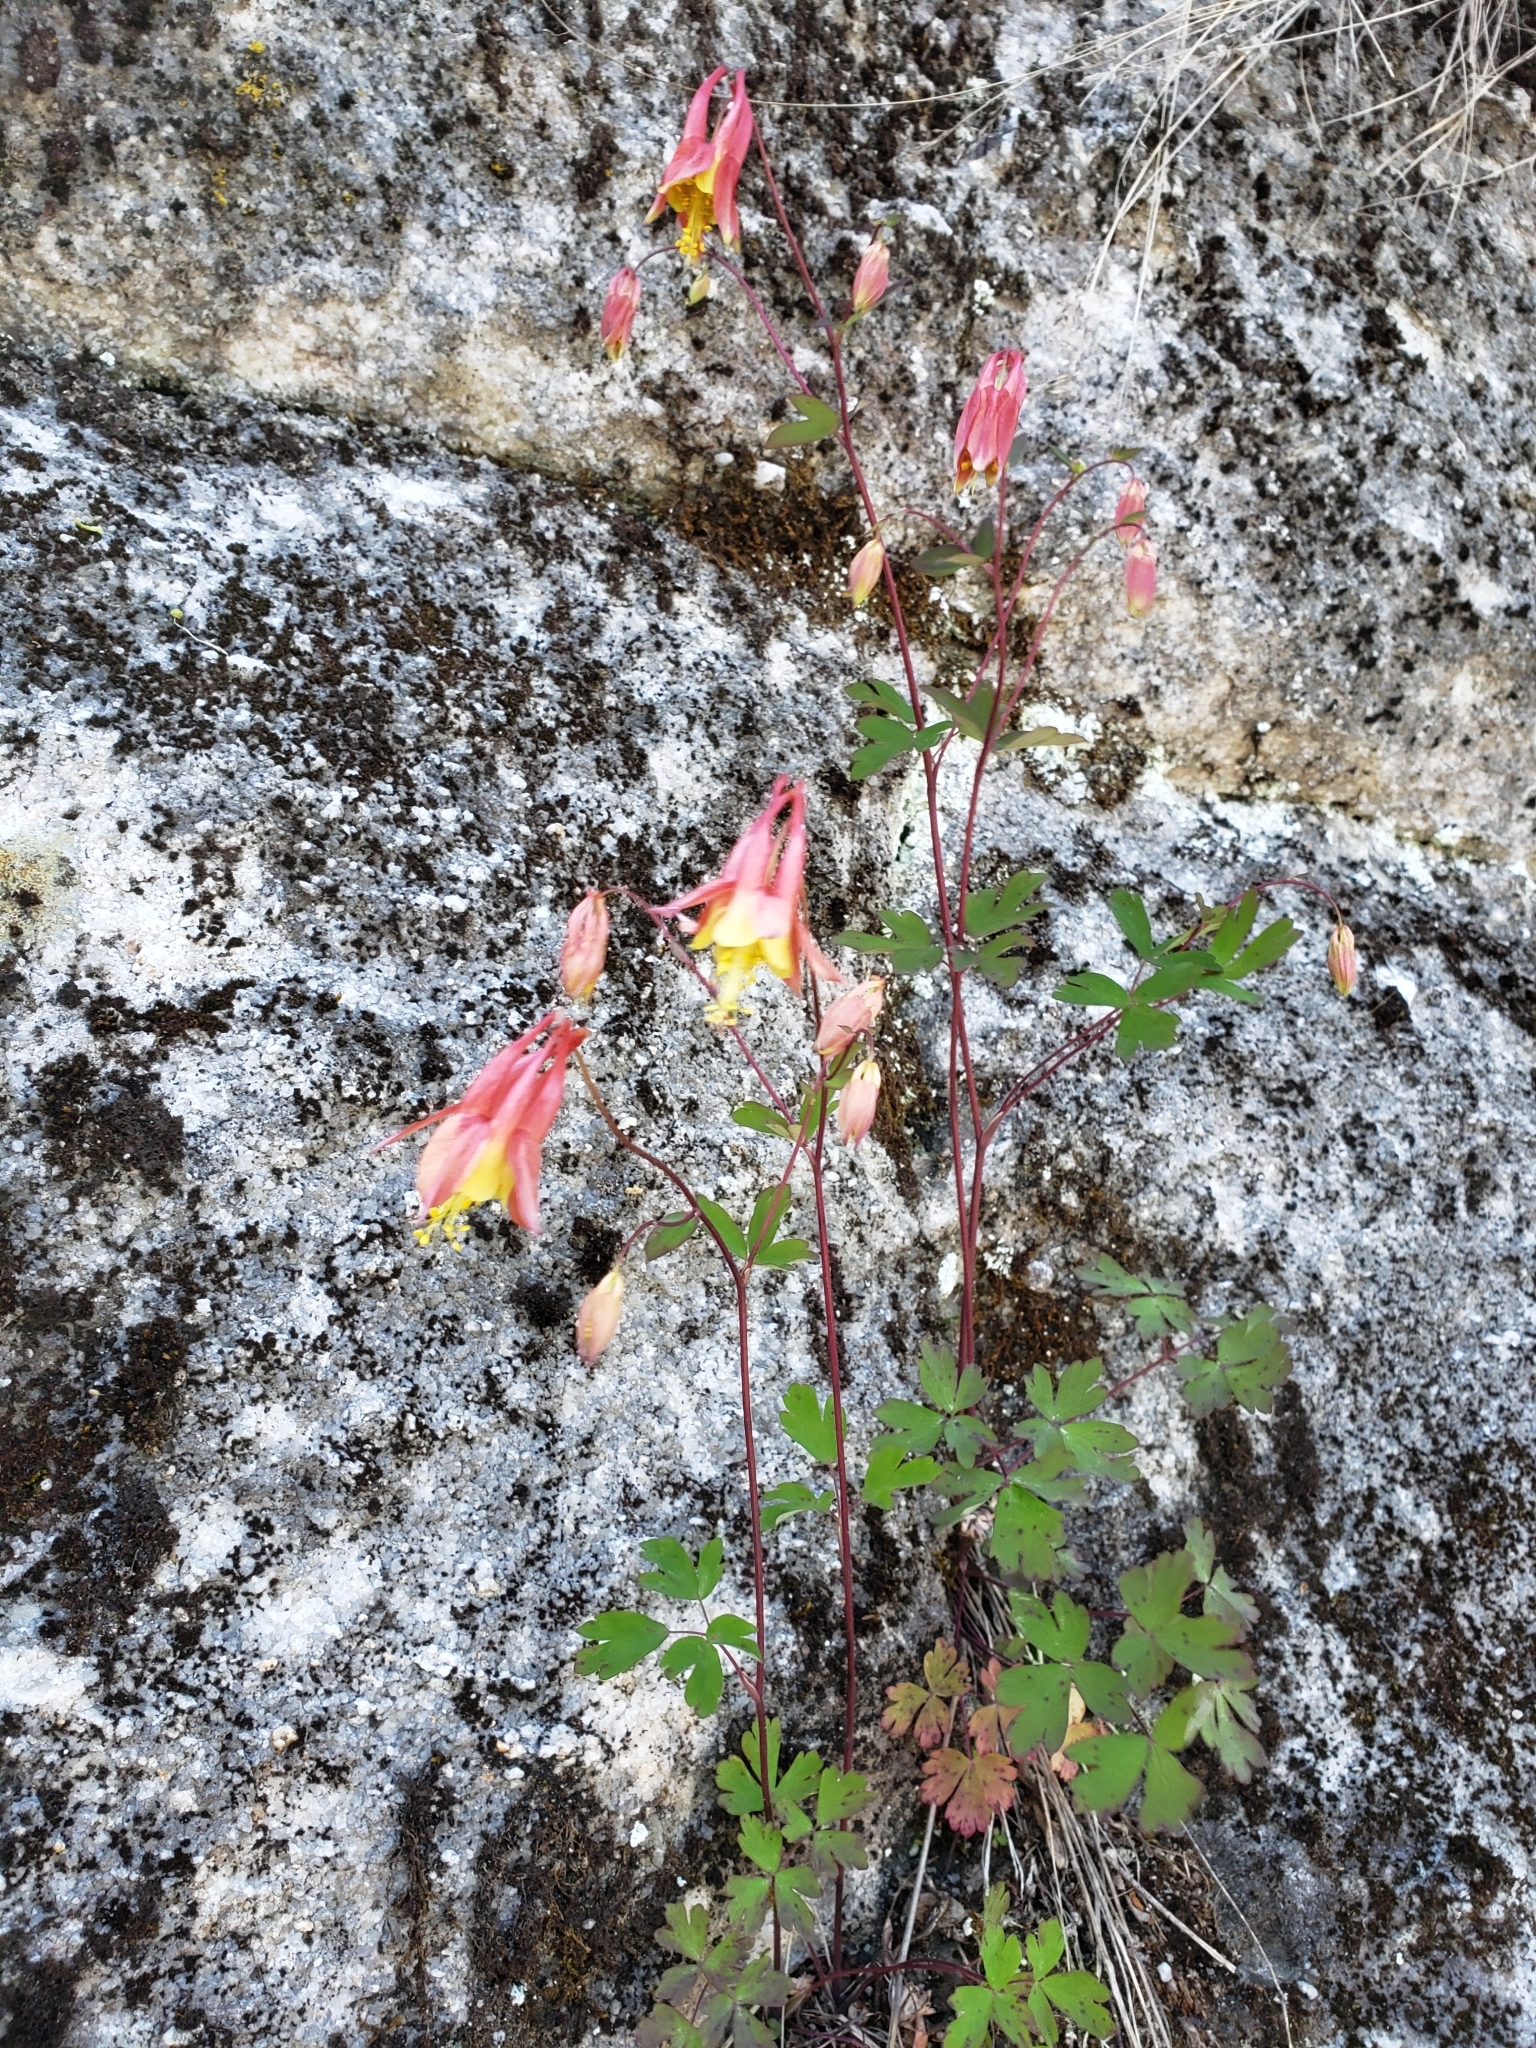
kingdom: Plantae
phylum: Tracheophyta
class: Magnoliopsida
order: Ranunculales
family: Ranunculaceae
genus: Aquilegia
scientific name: Aquilegia canadensis
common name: American columbine
